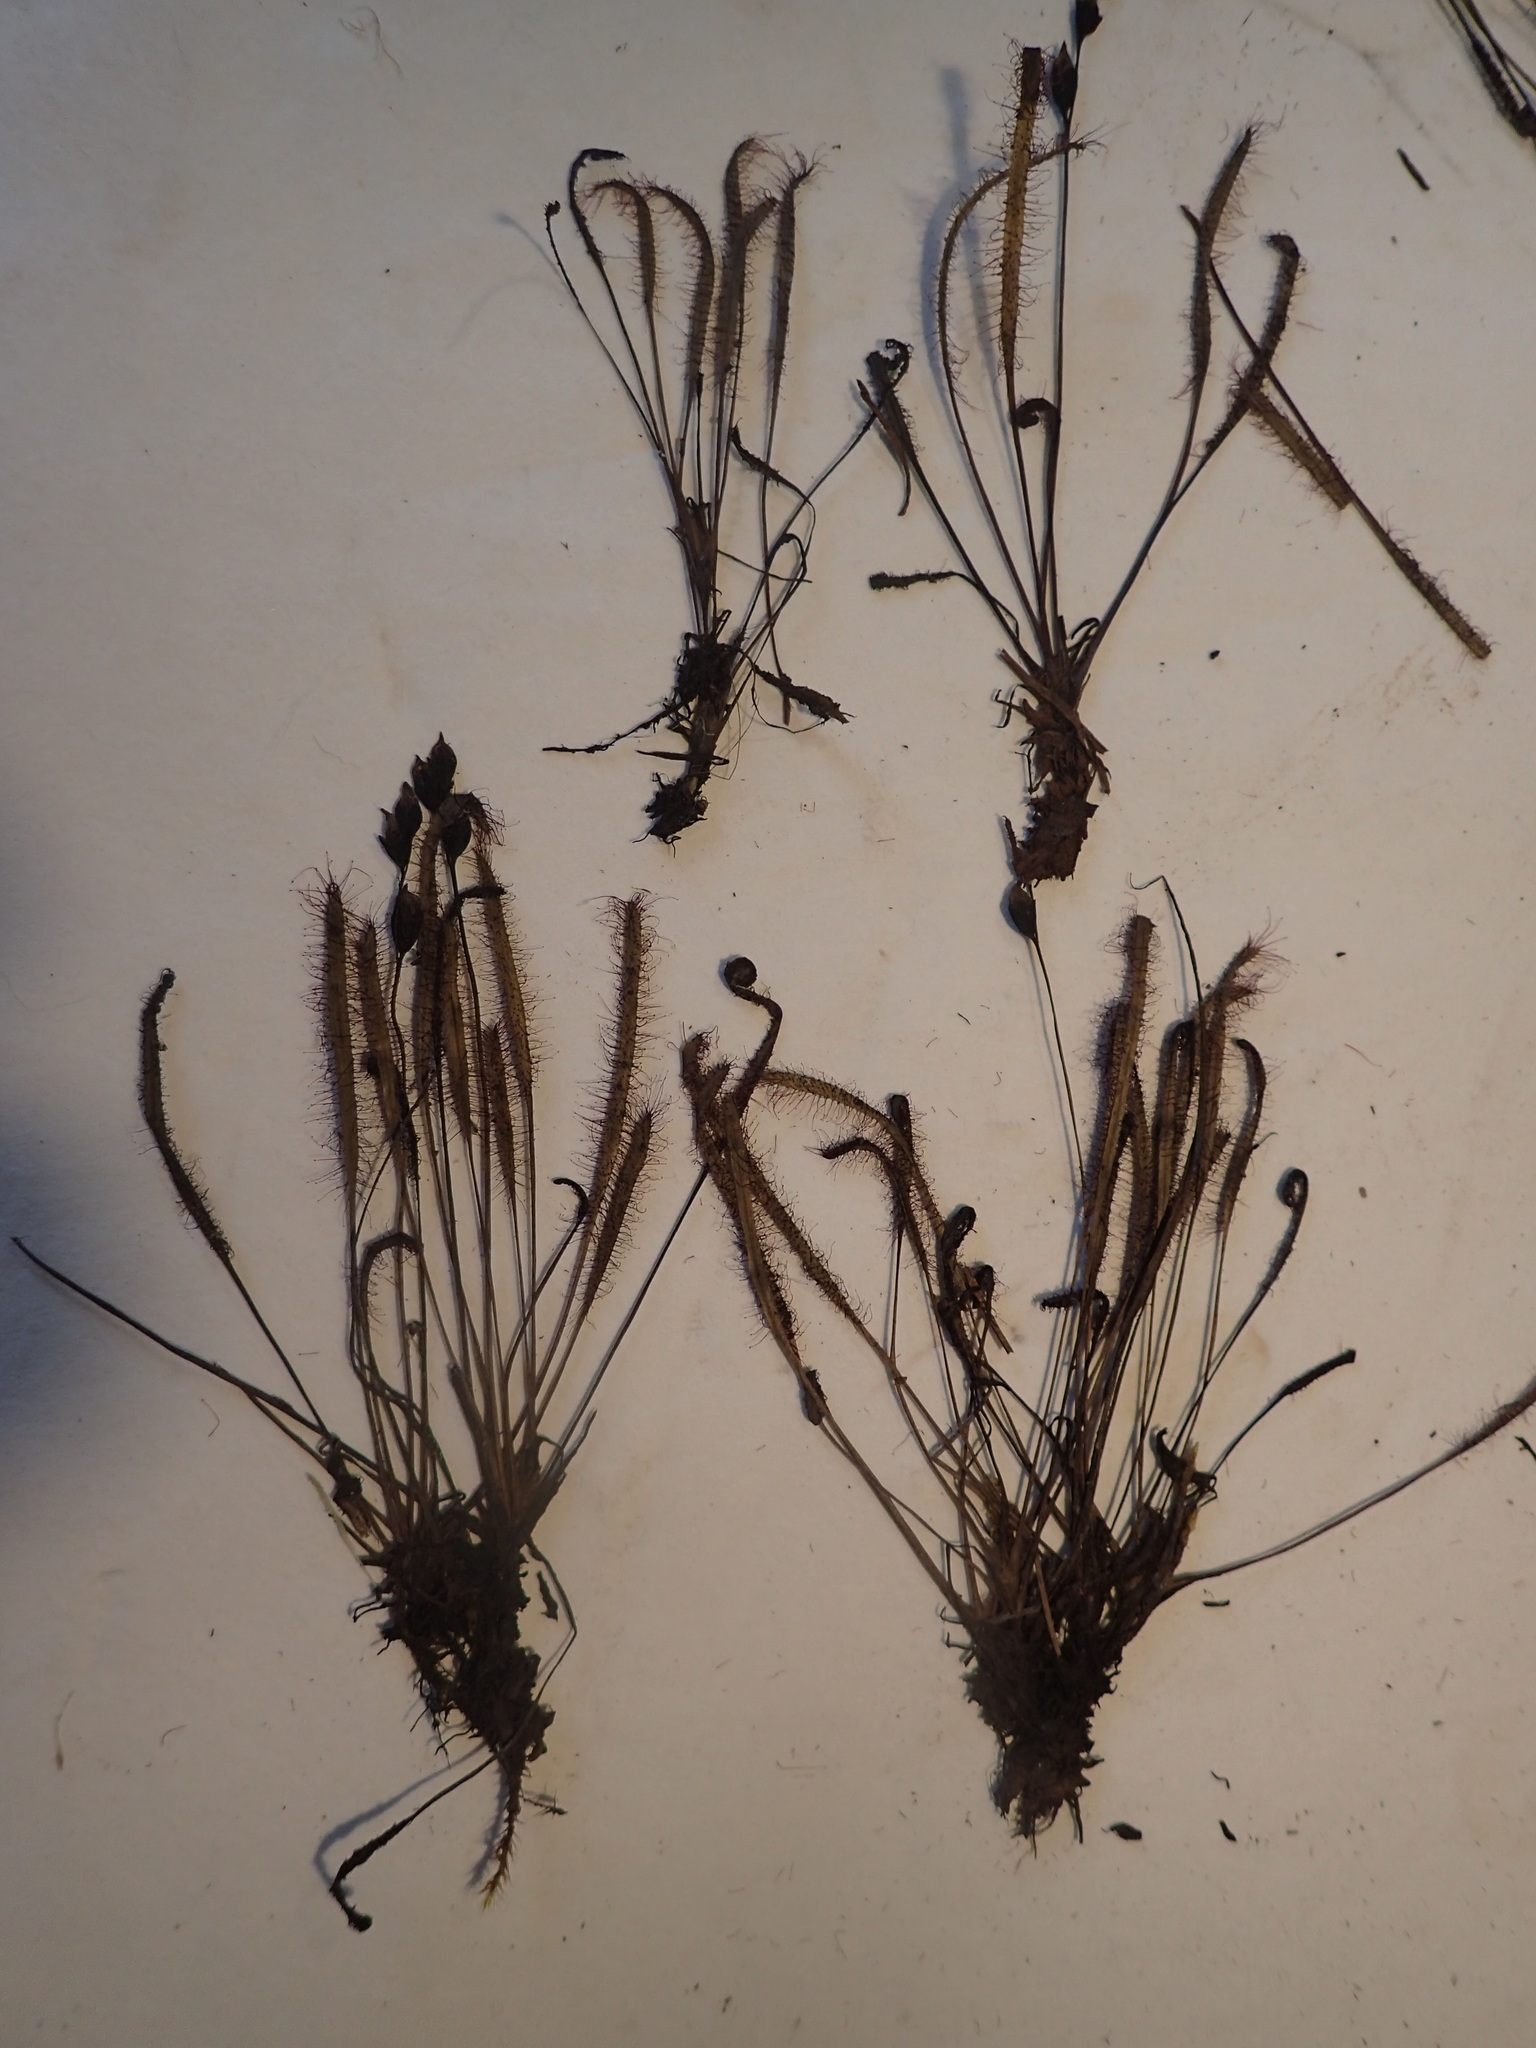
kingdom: Plantae
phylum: Tracheophyta
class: Magnoliopsida
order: Caryophyllales
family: Droseraceae
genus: Drosera
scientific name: Drosera linearis
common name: Linear-leaved sundew
